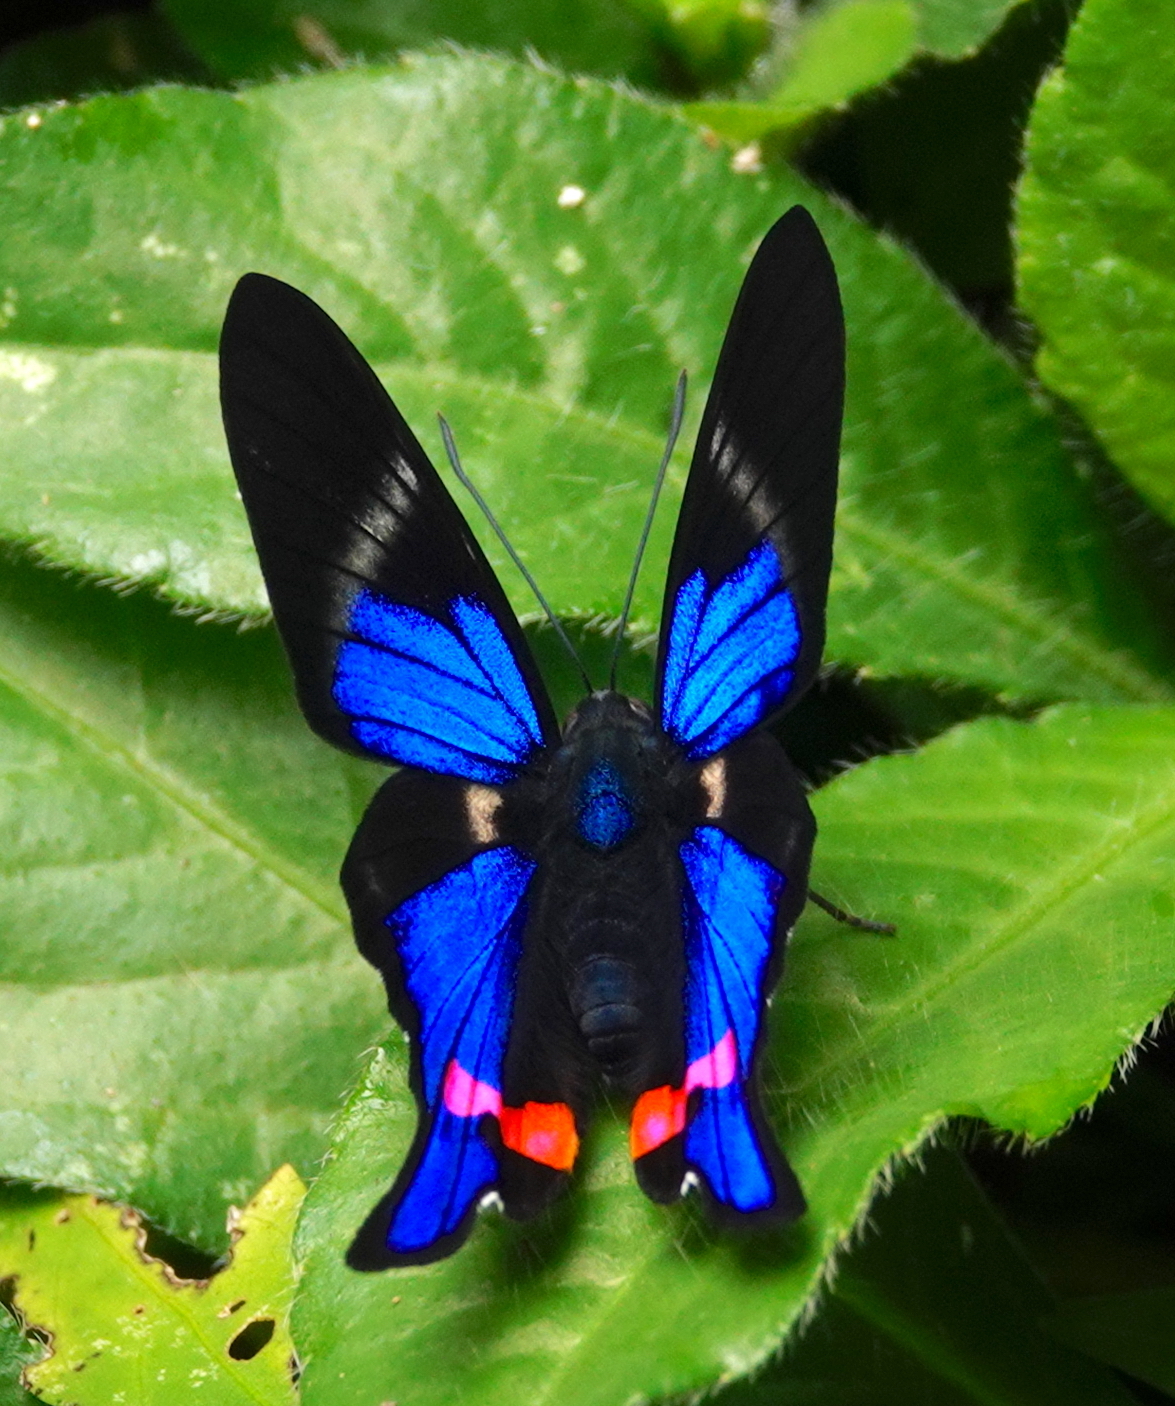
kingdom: Animalia
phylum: Arthropoda
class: Insecta
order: Lepidoptera
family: Riodinidae
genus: Rhetus
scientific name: Rhetus periander
